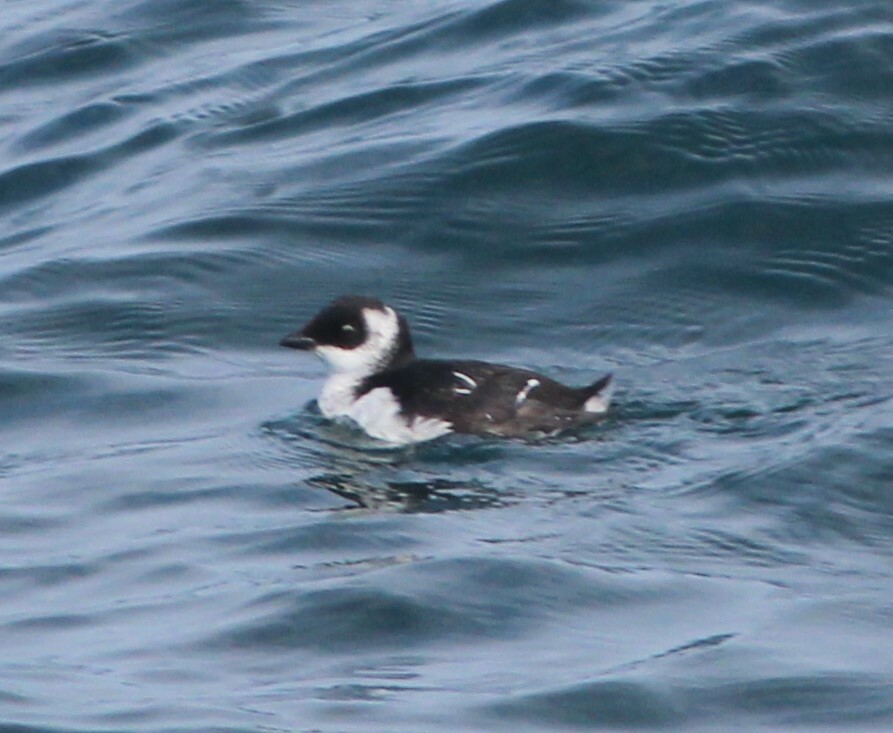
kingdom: Animalia
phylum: Chordata
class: Aves
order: Charadriiformes
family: Alcidae
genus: Alle
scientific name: Alle alle
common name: Little auk
